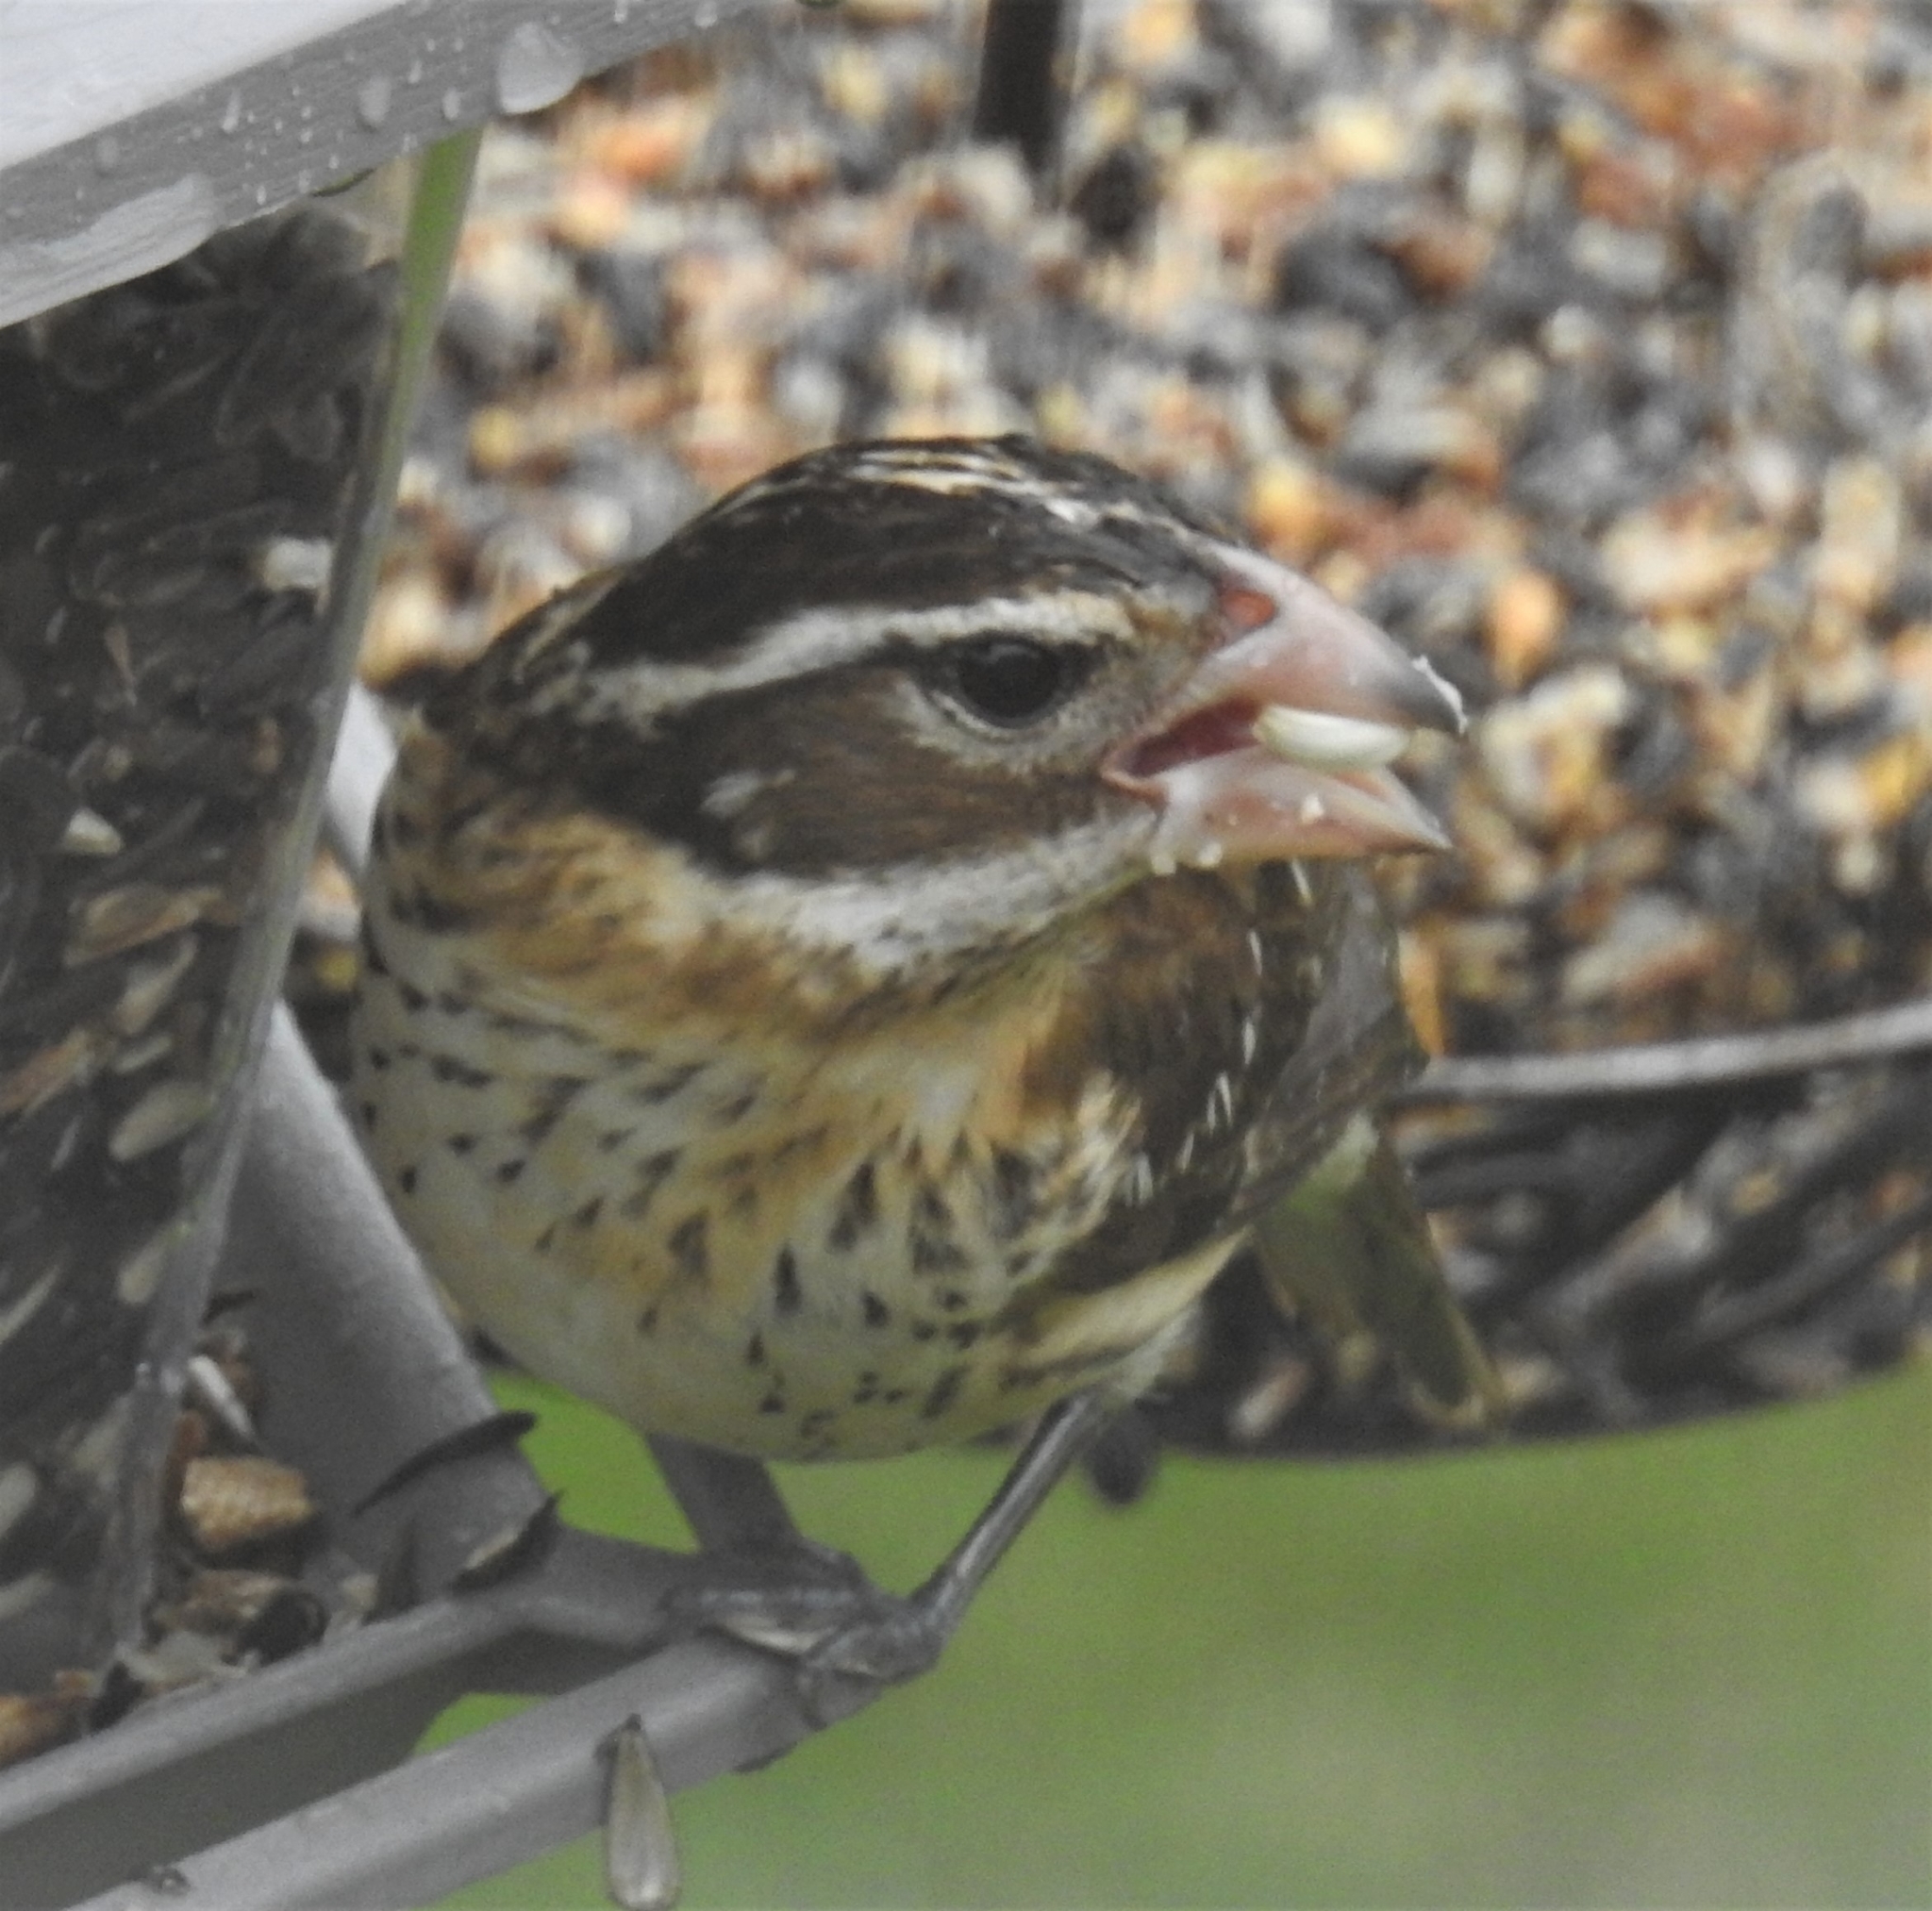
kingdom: Animalia
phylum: Chordata
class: Aves
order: Passeriformes
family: Cardinalidae
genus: Pheucticus
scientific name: Pheucticus ludovicianus
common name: Rose-breasted grosbeak
